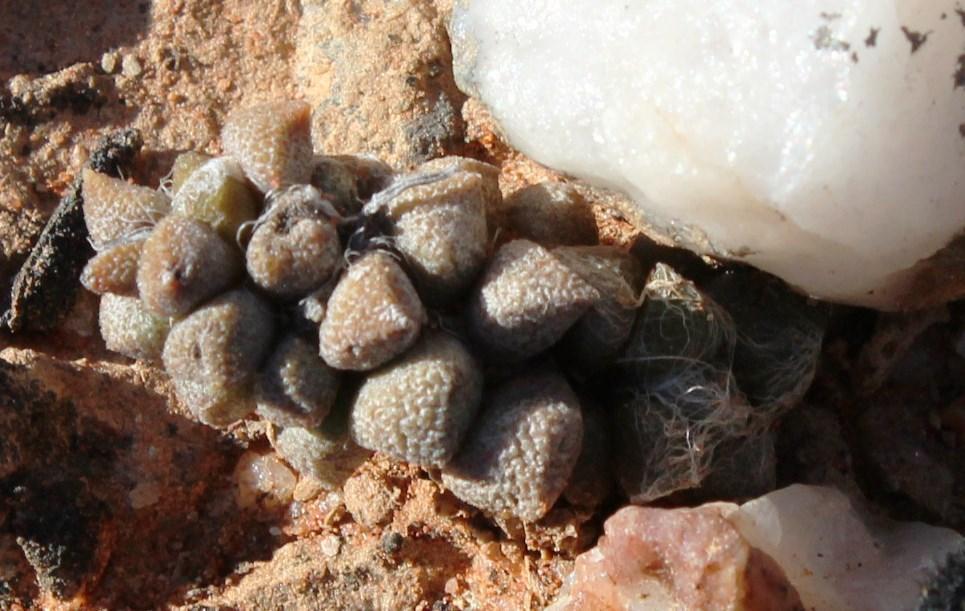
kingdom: Plantae
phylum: Tracheophyta
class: Magnoliopsida
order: Caryophyllales
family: Anacampserotaceae
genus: Anacampseros
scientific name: Anacampseros filamentosa
